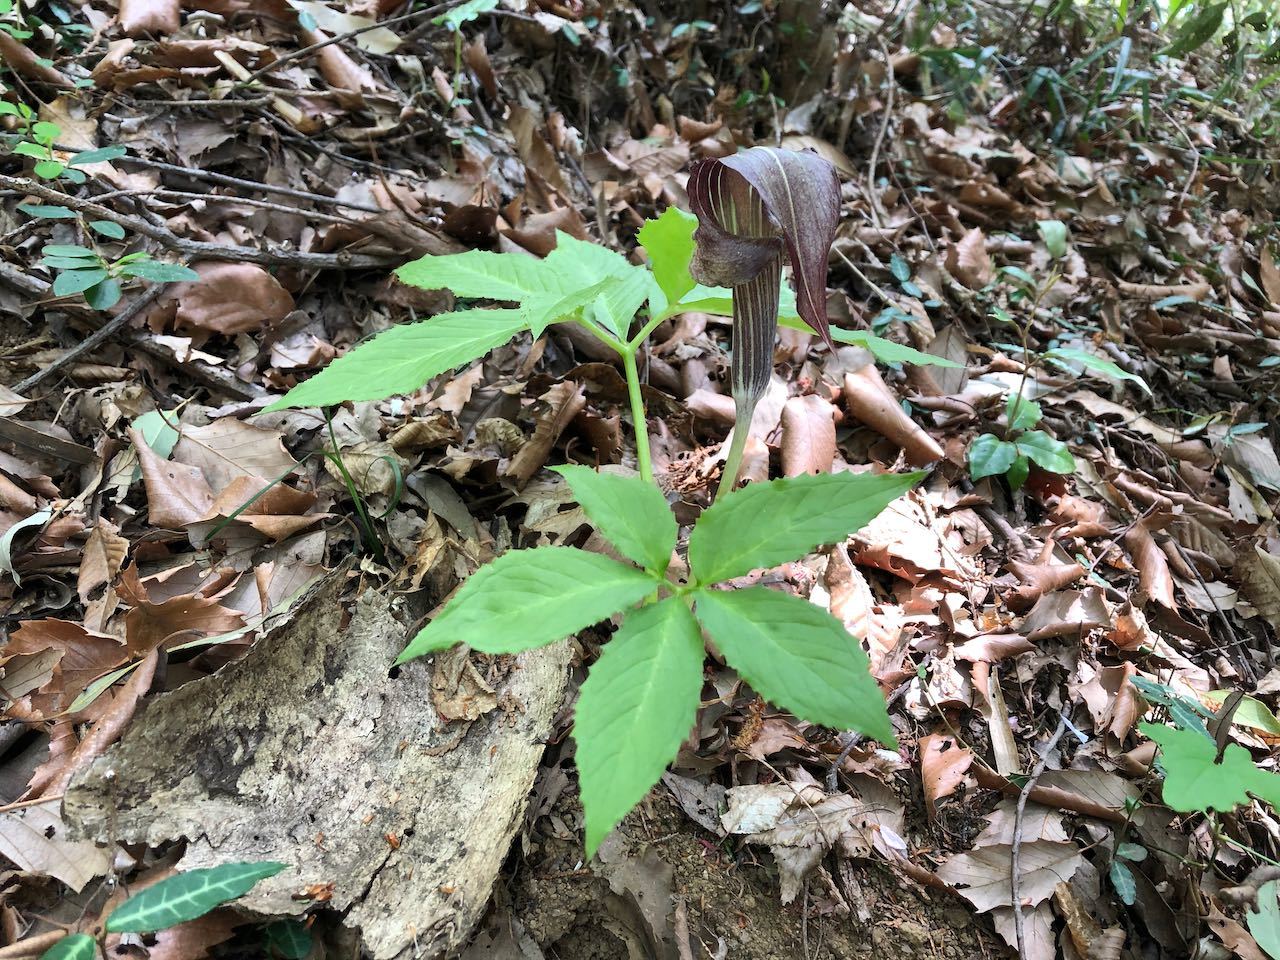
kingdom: Plantae
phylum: Tracheophyta
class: Liliopsida
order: Alismatales
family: Araceae
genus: Arisaema
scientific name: Arisaema limbatum
